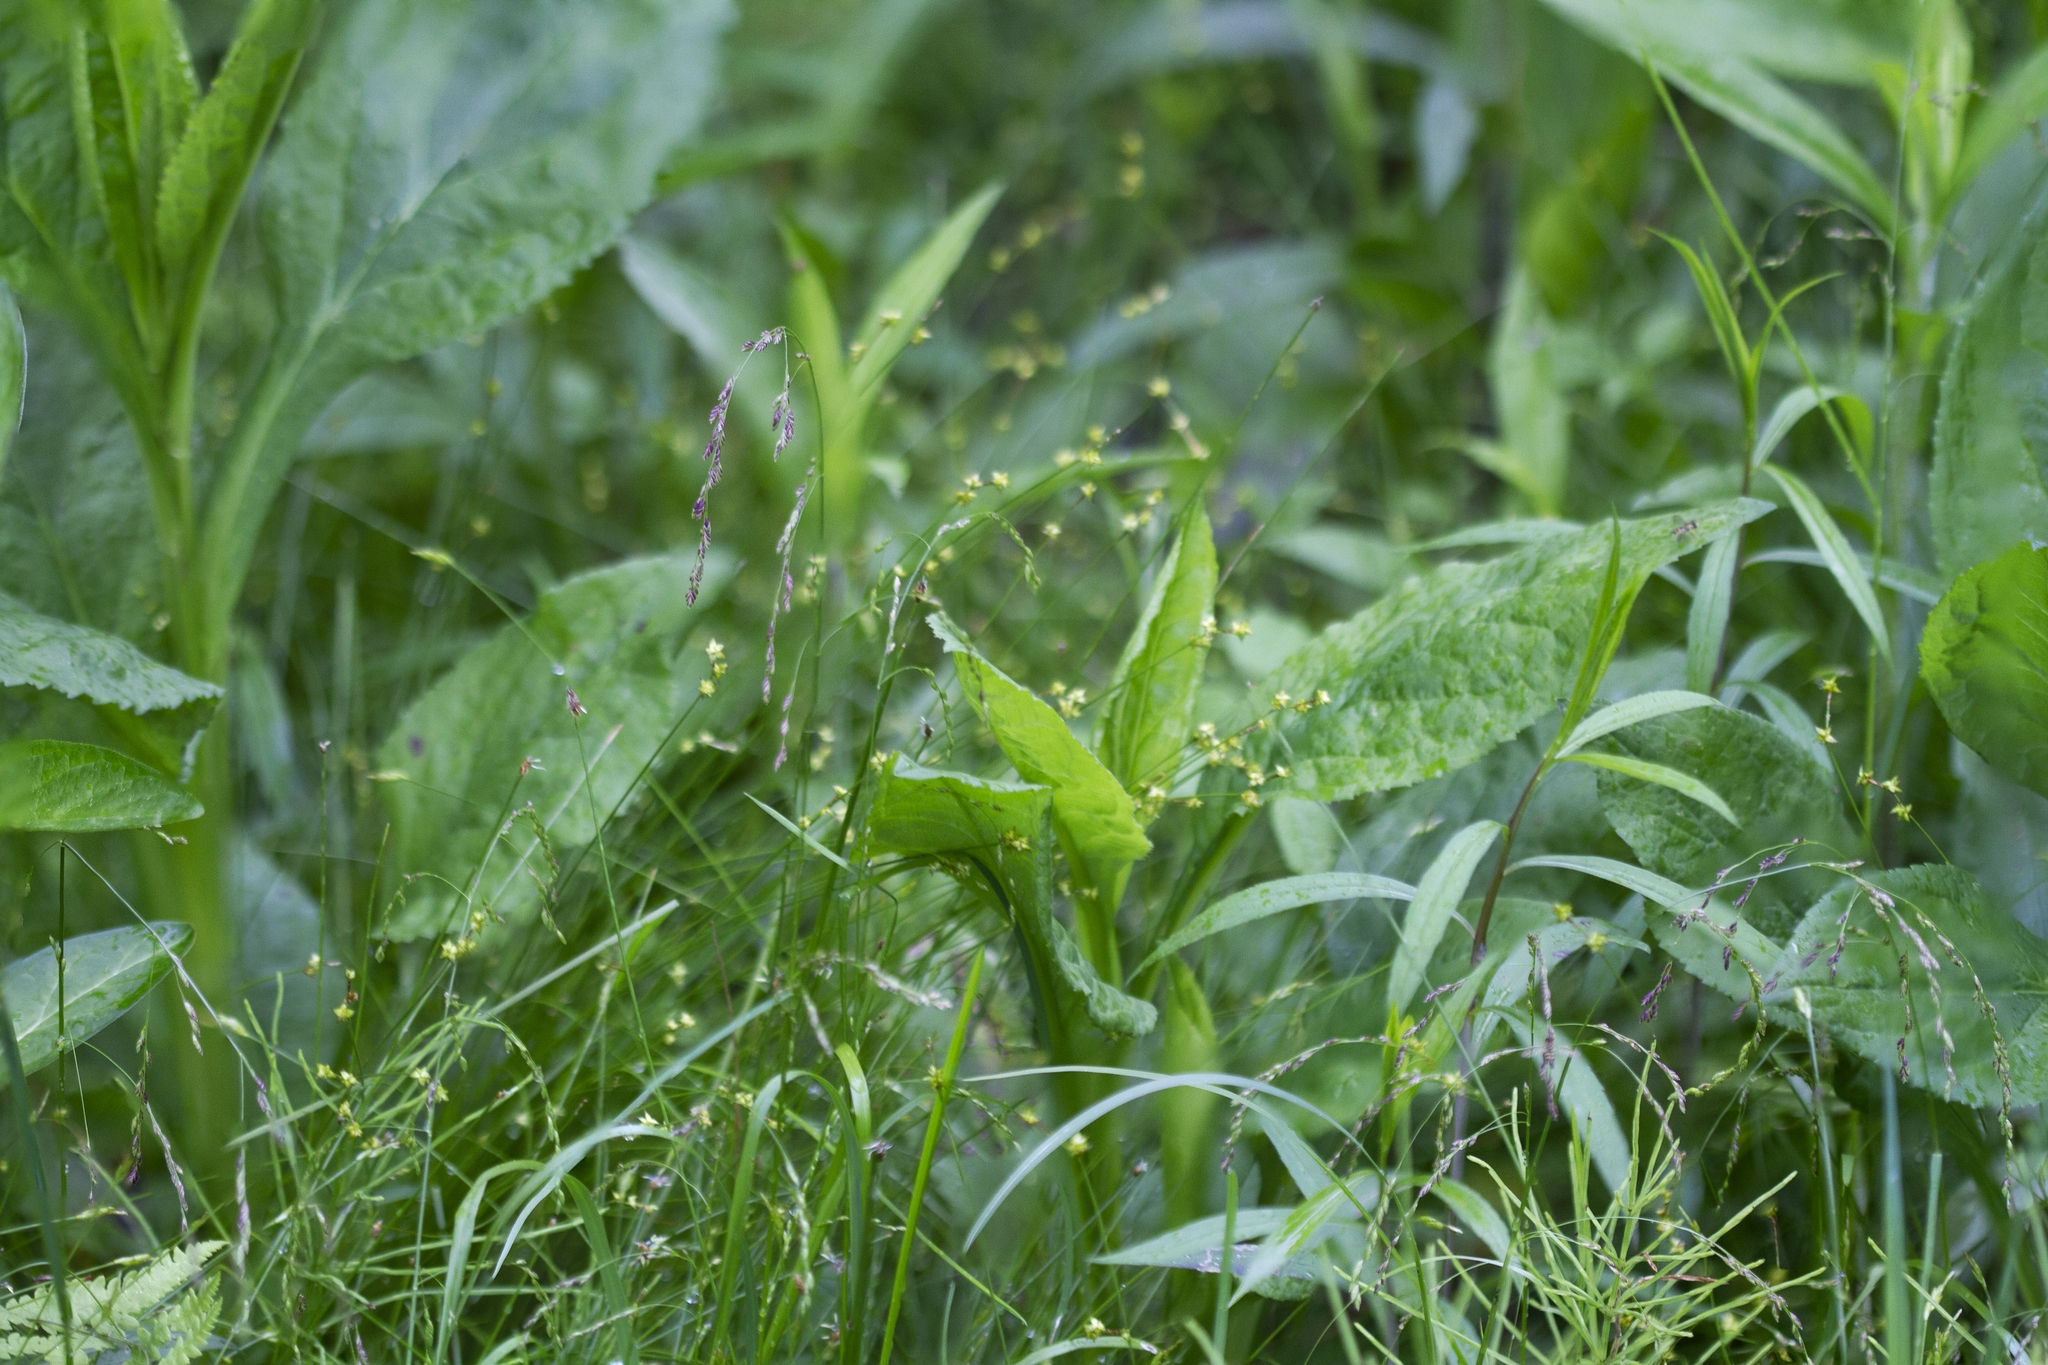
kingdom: Plantae
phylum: Tracheophyta
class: Liliopsida
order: Poales
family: Cyperaceae
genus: Carex
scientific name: Carex interior
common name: Inland sedge
